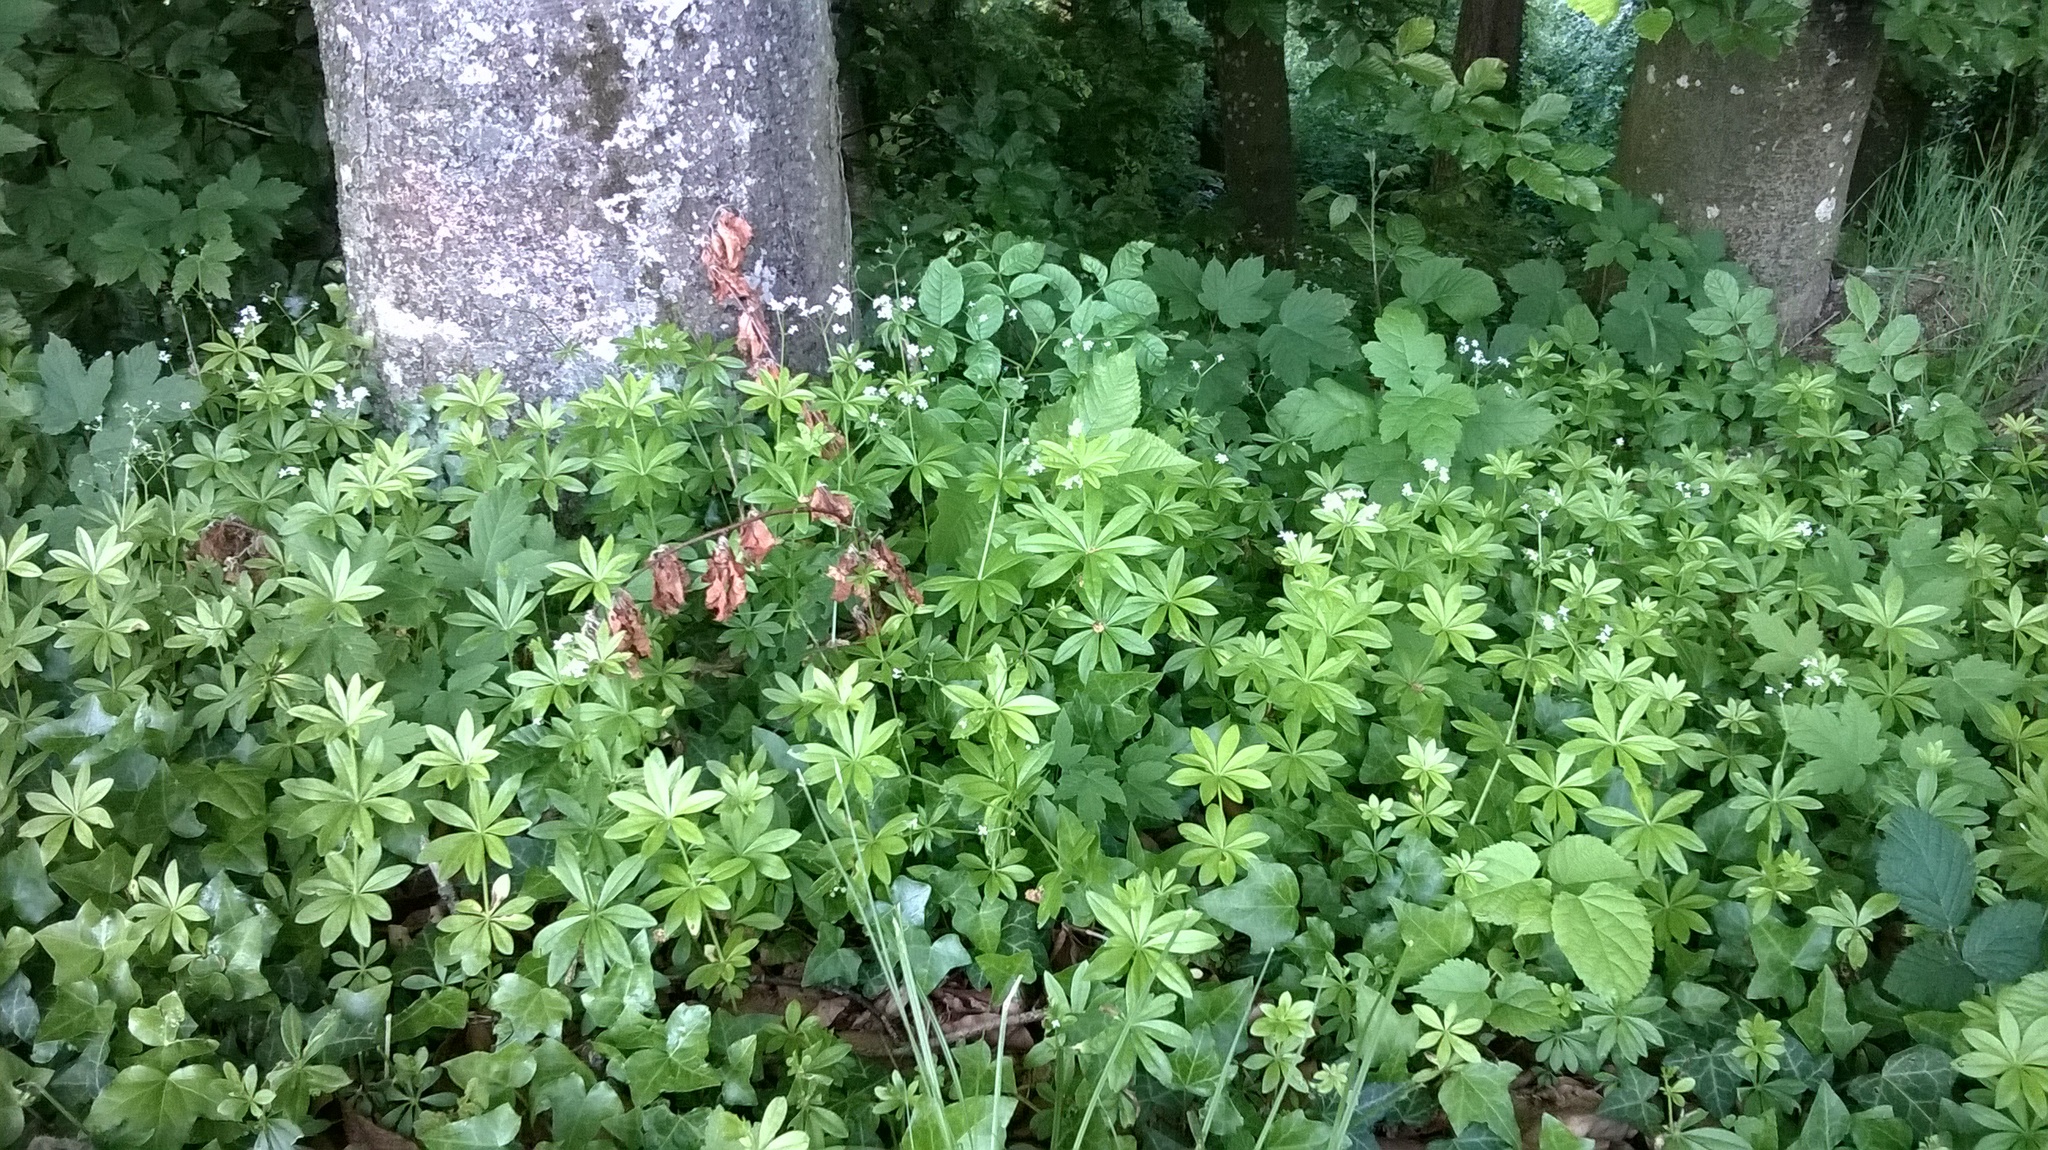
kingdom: Plantae
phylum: Tracheophyta
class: Magnoliopsida
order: Gentianales
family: Rubiaceae
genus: Galium
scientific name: Galium odoratum
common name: Sweet woodruff
